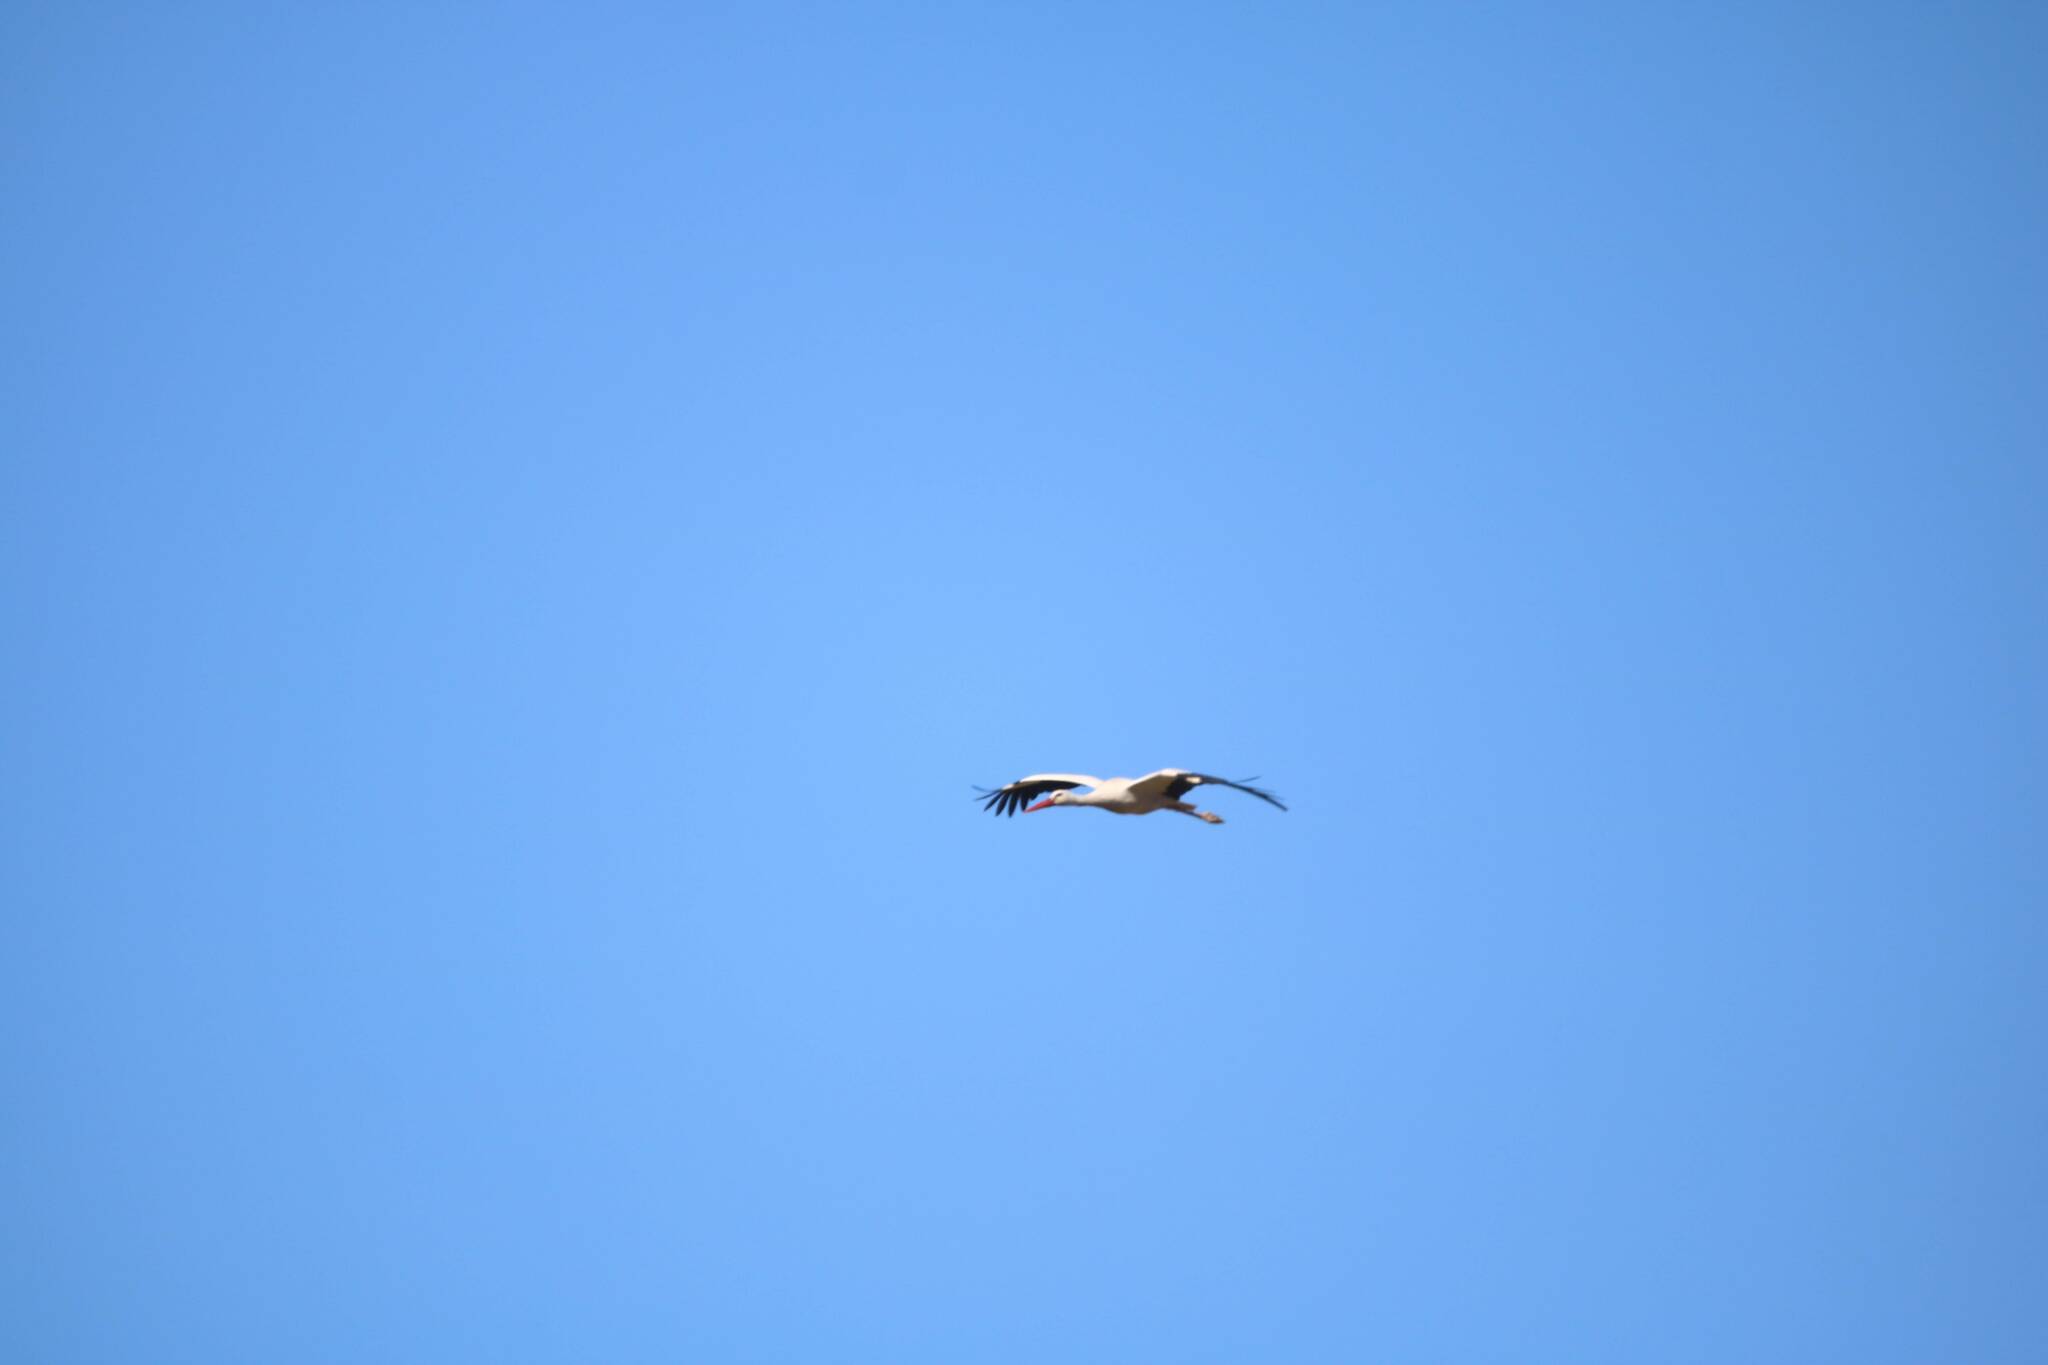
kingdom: Animalia
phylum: Chordata
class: Aves
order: Ciconiiformes
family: Ciconiidae
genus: Ciconia
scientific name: Ciconia ciconia
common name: White stork
